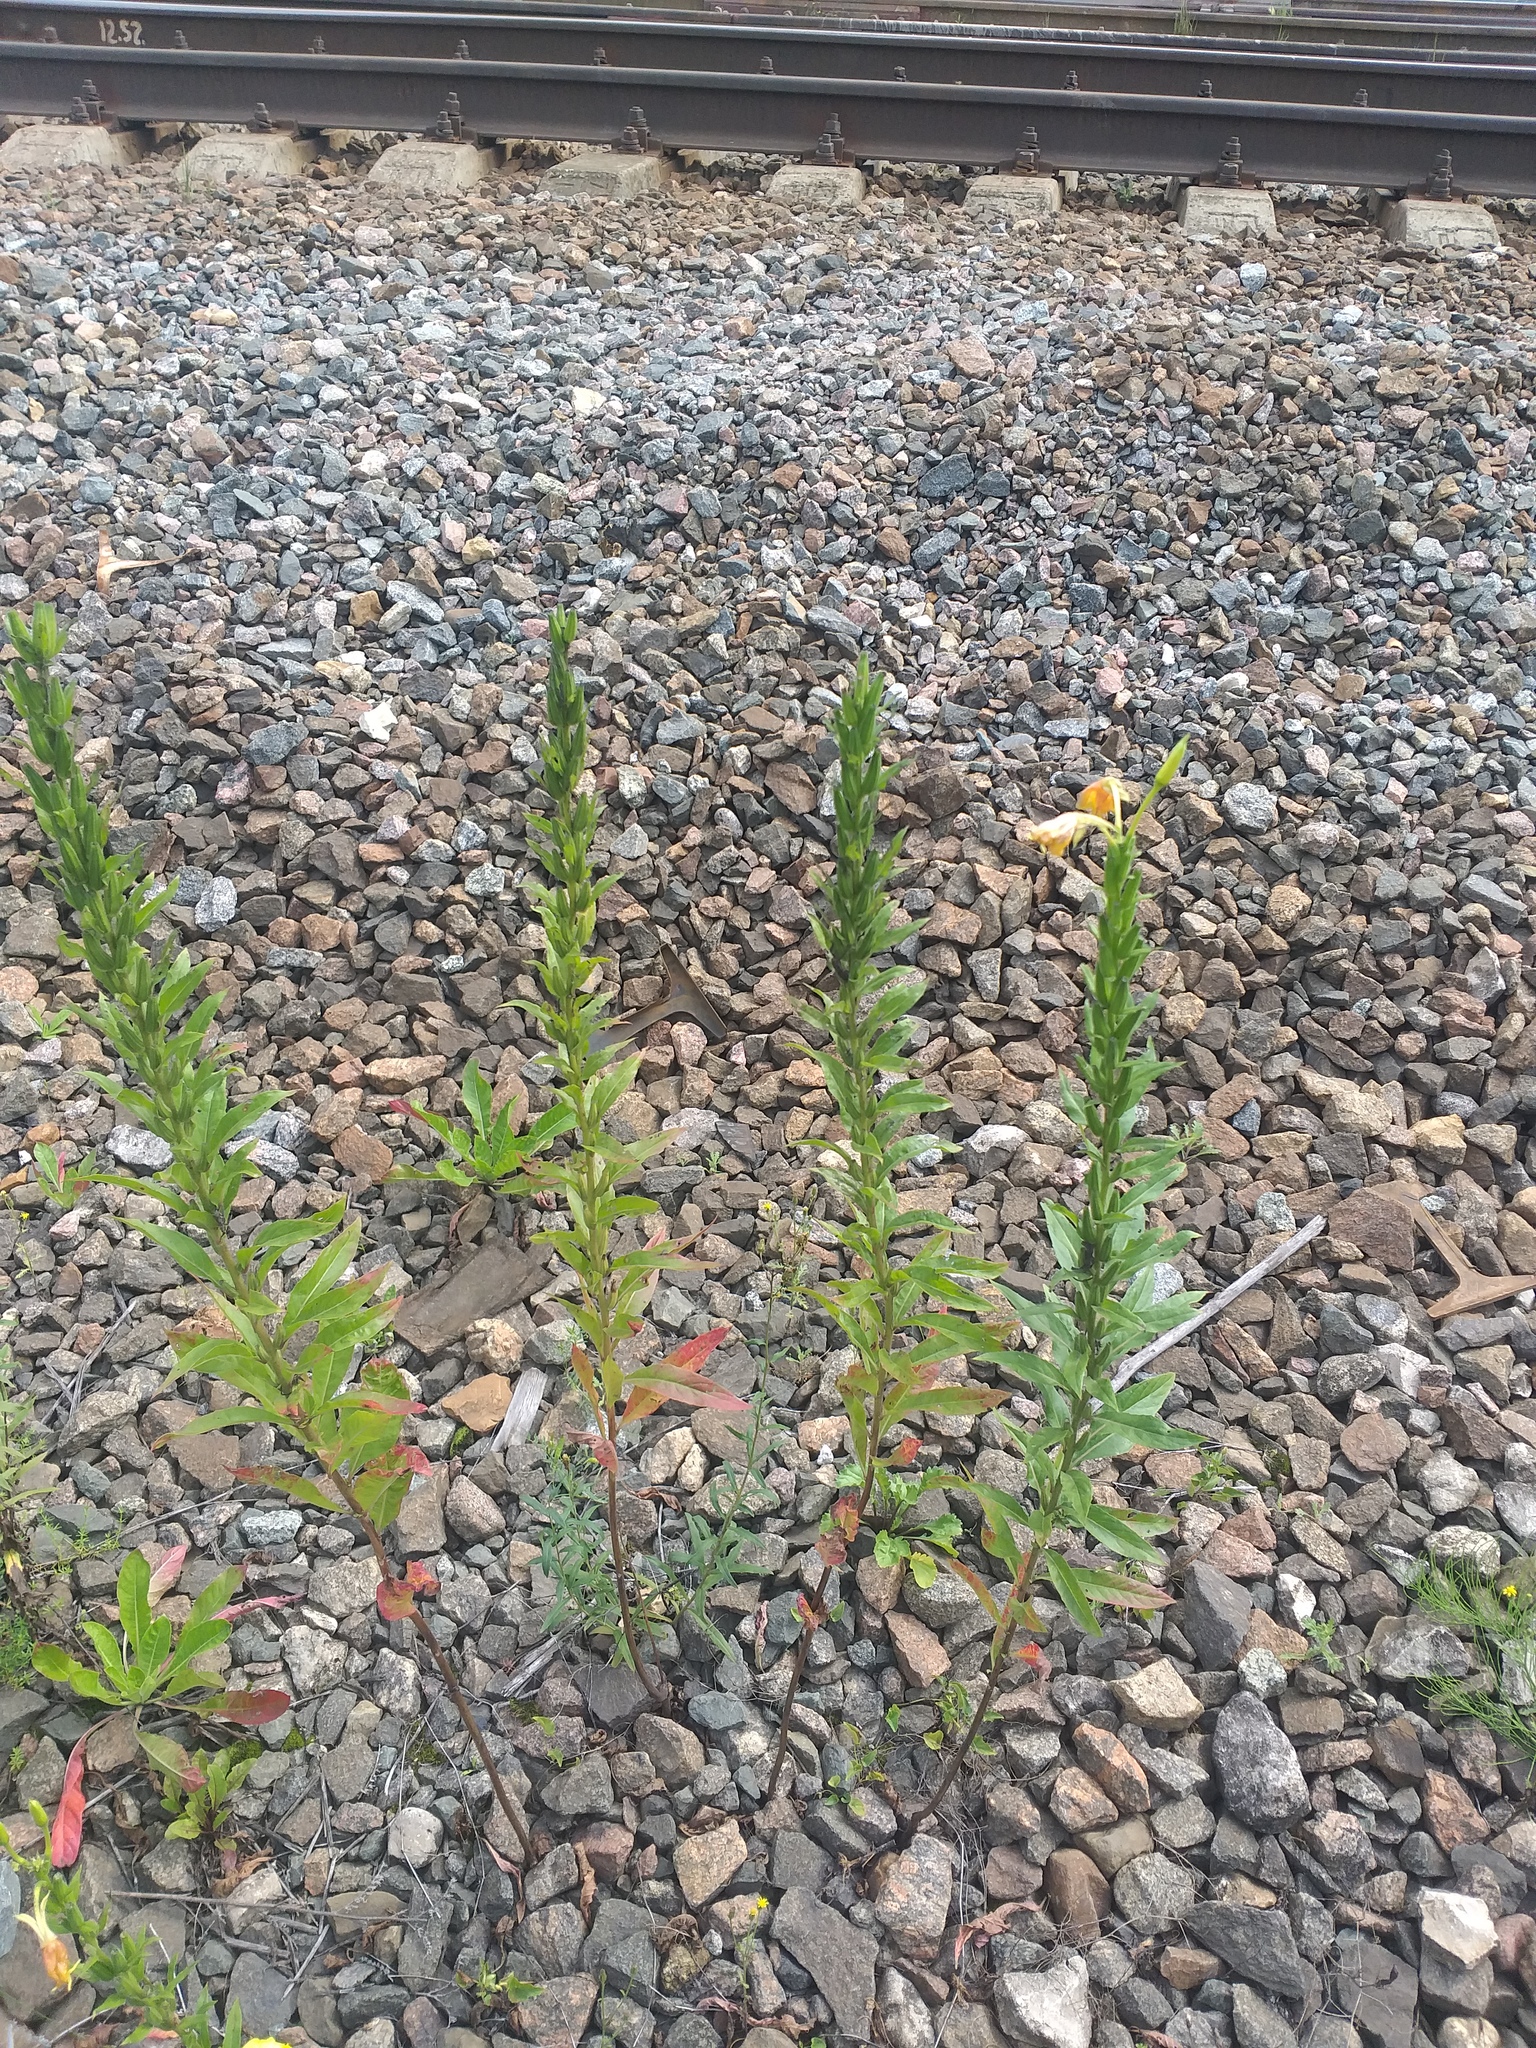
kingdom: Plantae
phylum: Tracheophyta
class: Magnoliopsida
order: Myrtales
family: Onagraceae
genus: Oenothera
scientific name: Oenothera biennis
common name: Common evening-primrose
